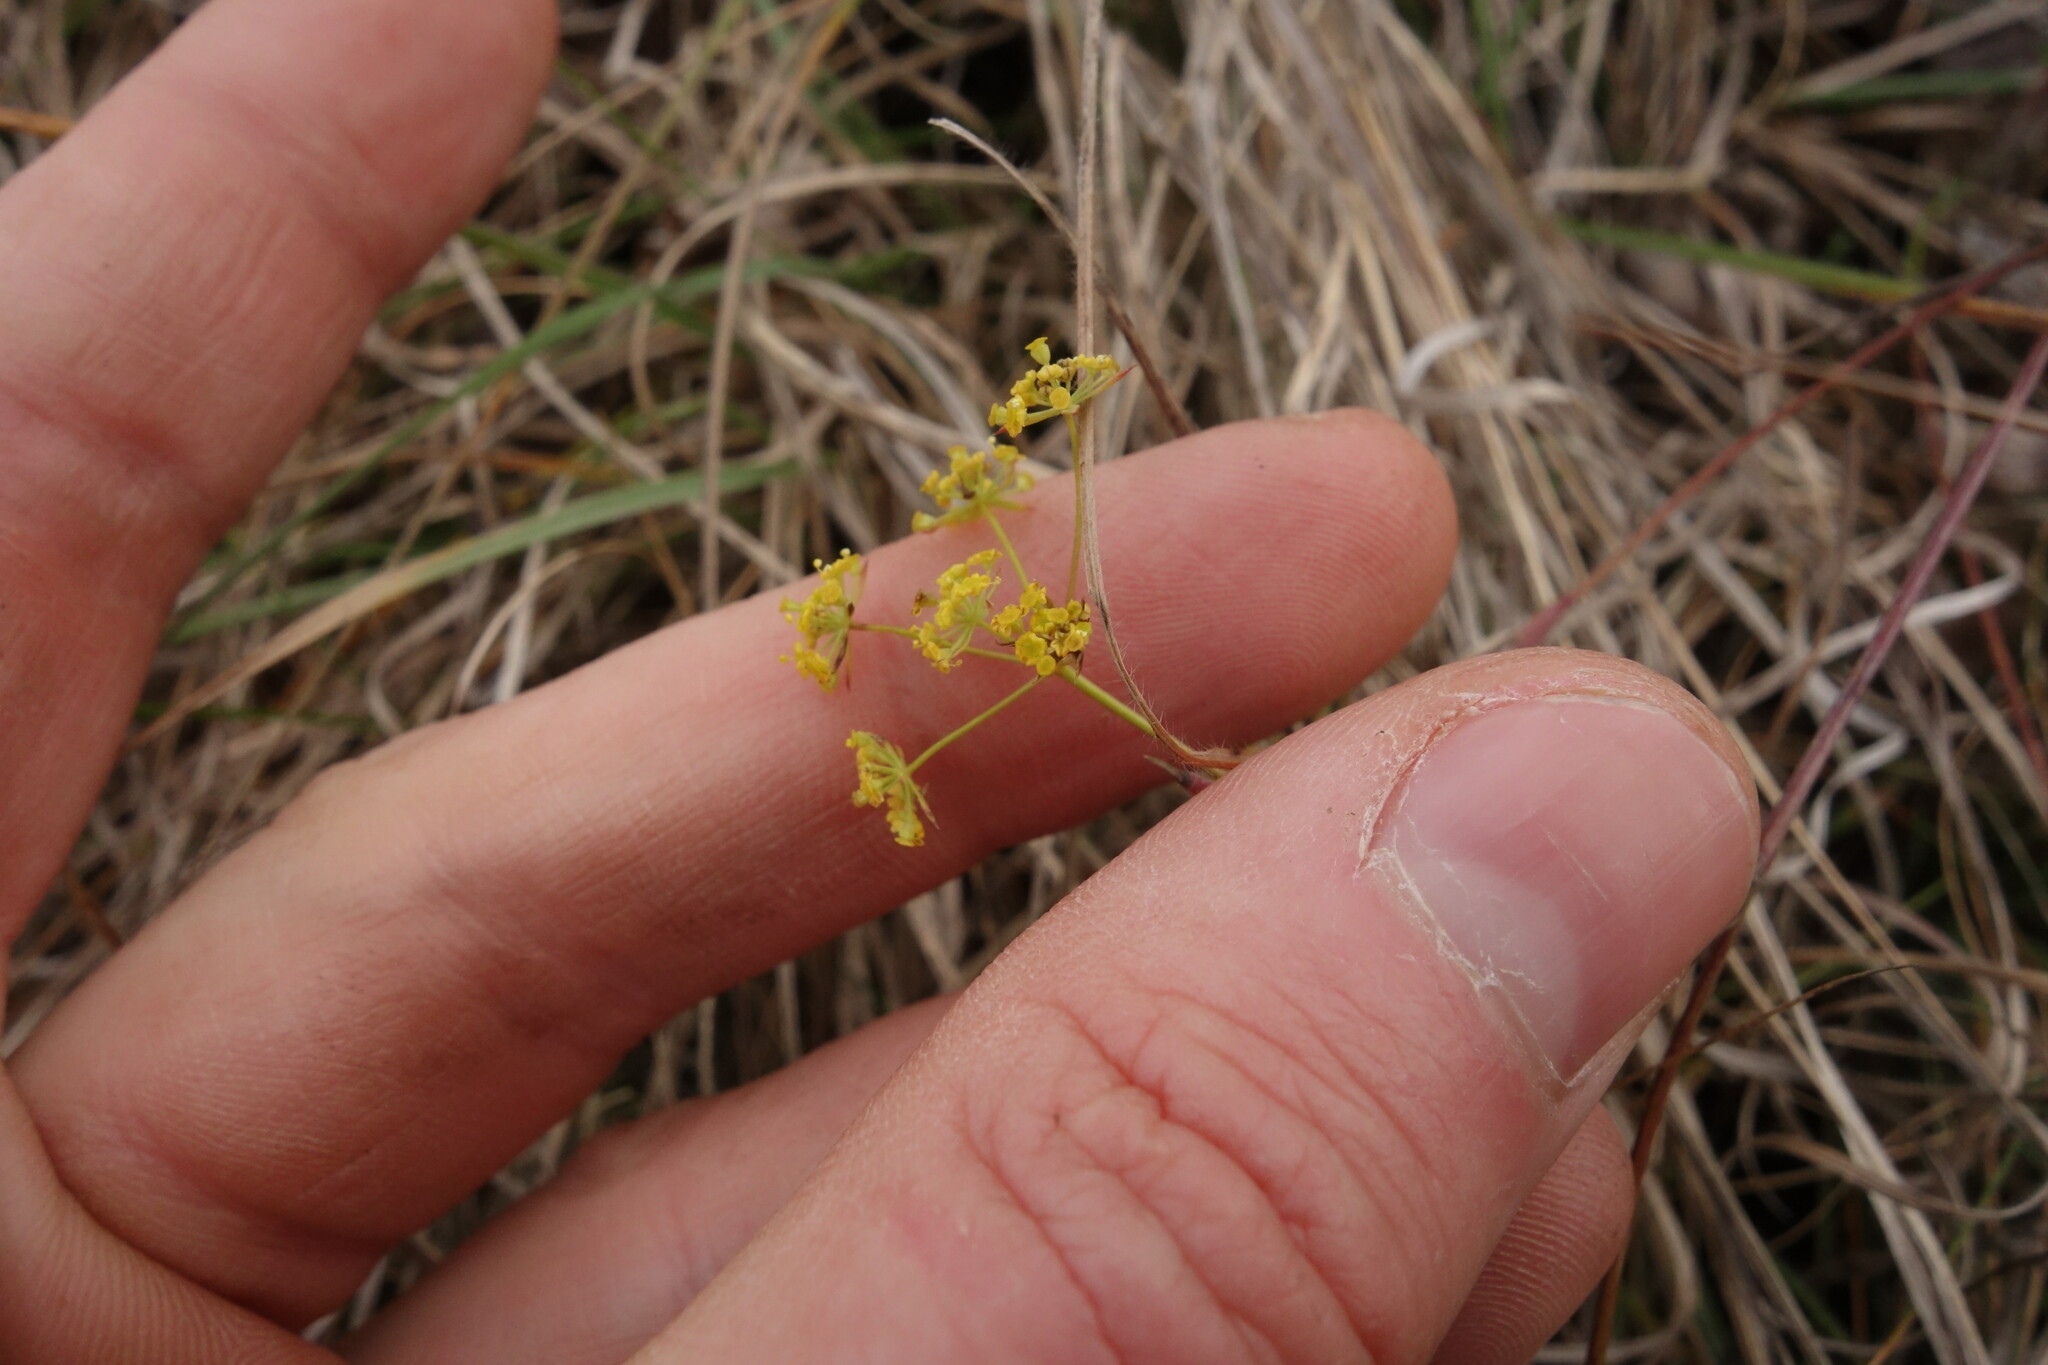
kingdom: Plantae
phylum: Tracheophyta
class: Magnoliopsida
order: Apiales
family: Apiaceae
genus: Bupleurum
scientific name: Bupleurum falcatum
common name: Sickle-leaved hare's-ear
